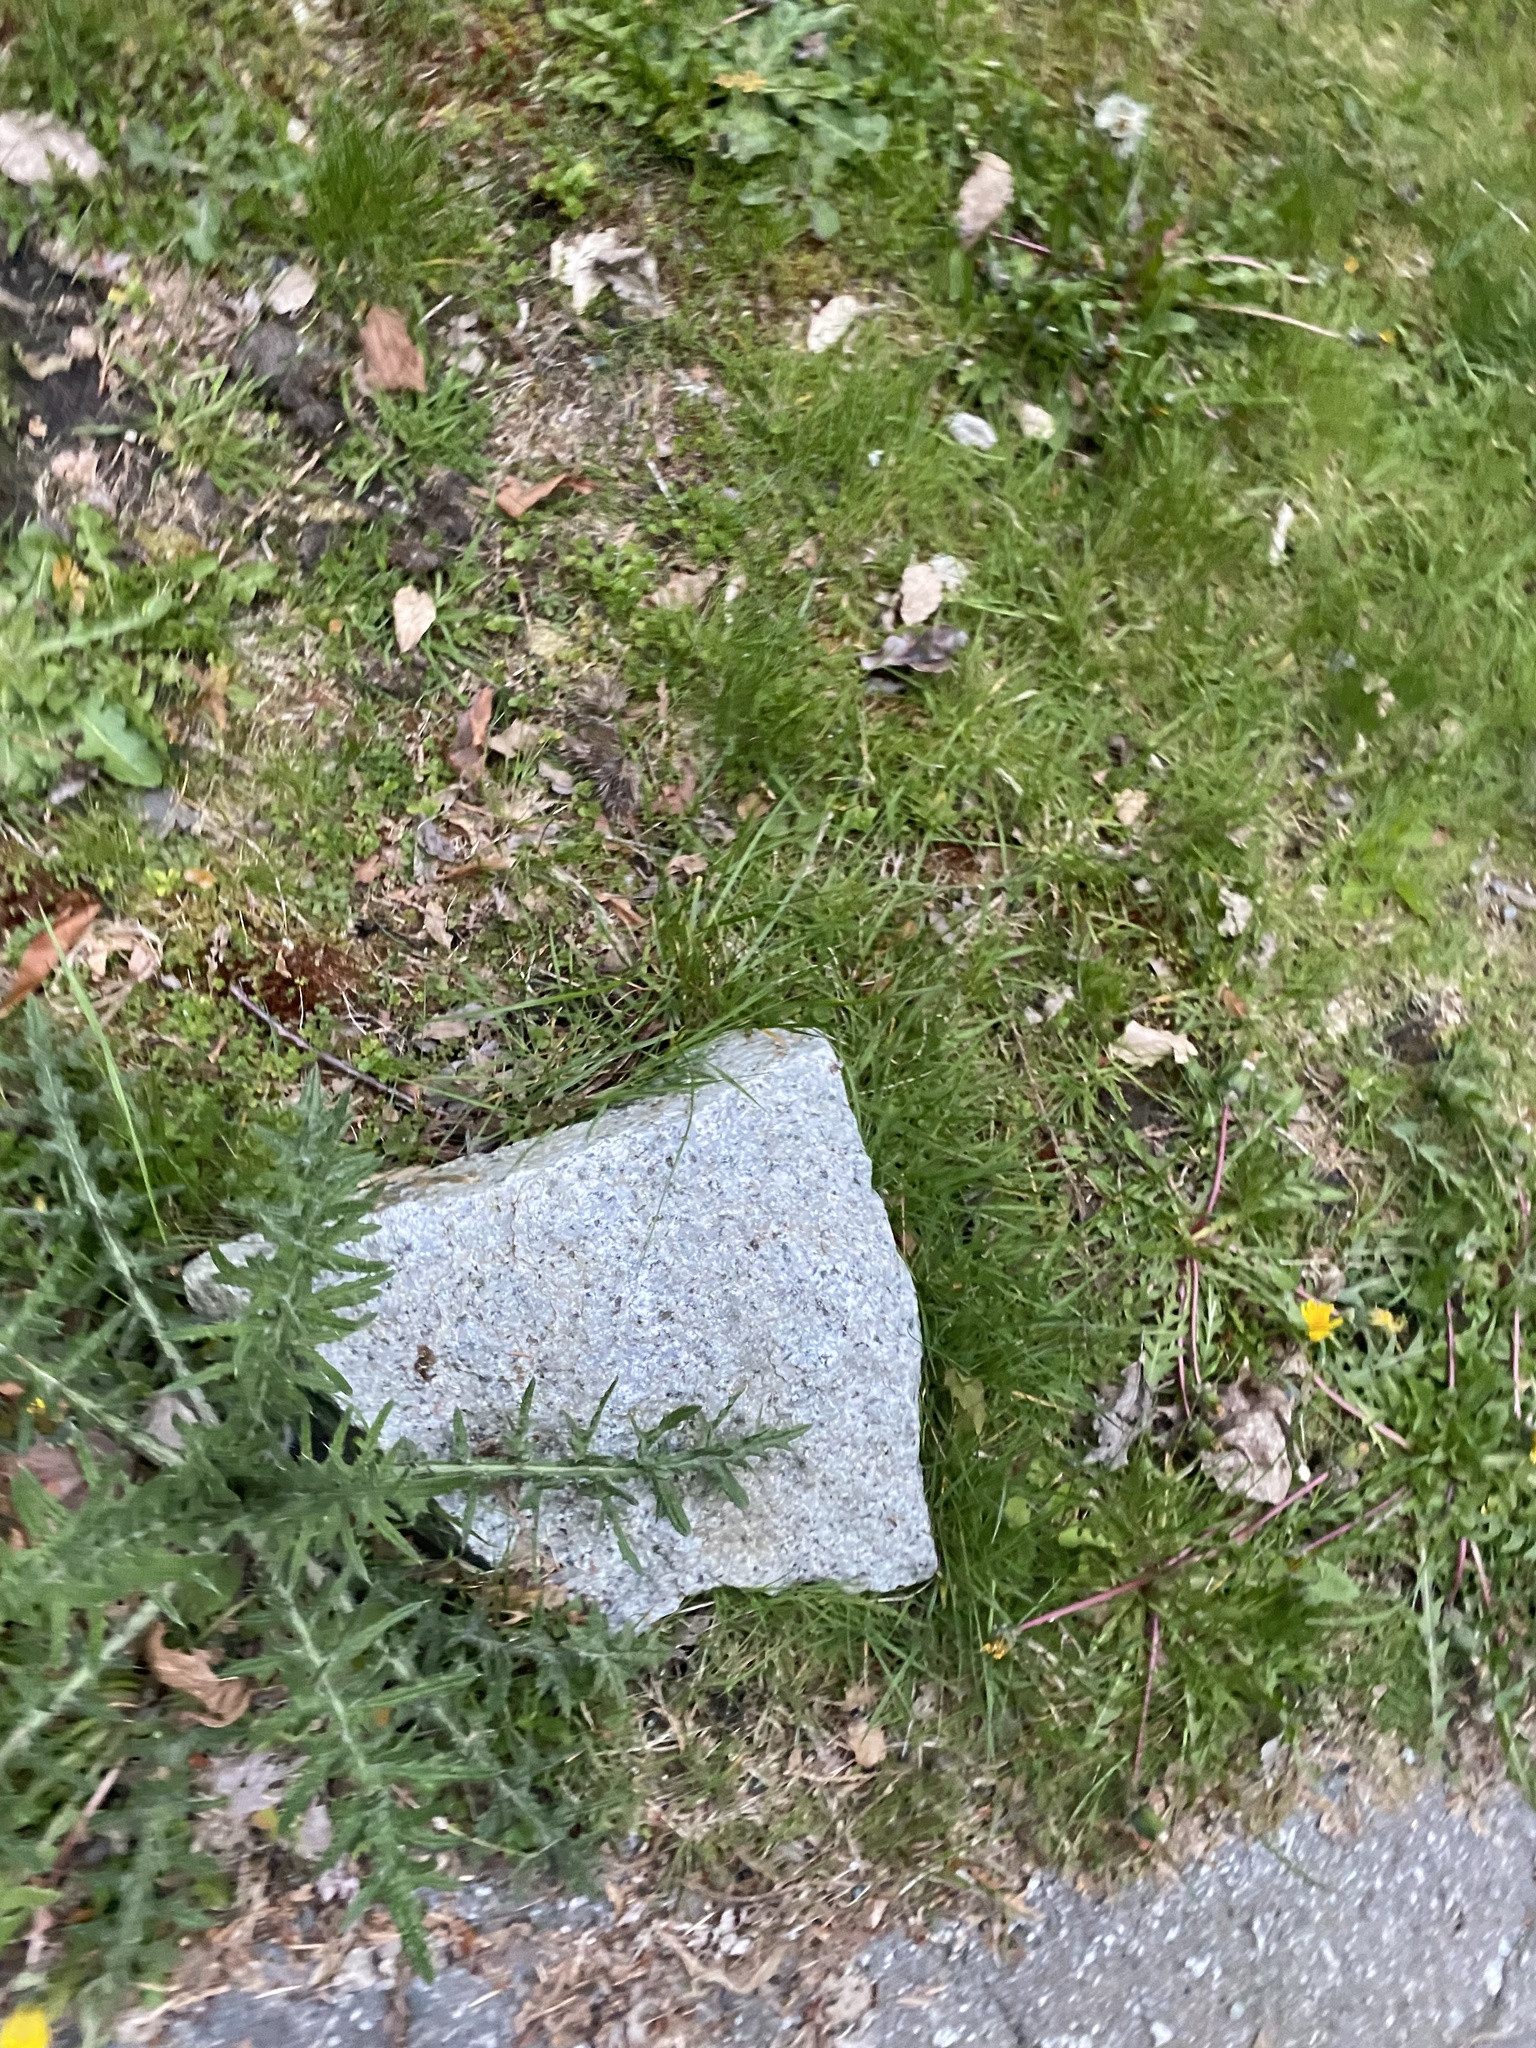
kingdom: Plantae
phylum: Tracheophyta
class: Magnoliopsida
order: Asterales
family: Asteraceae
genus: Cirsium
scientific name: Cirsium vulgare
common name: Bull thistle
